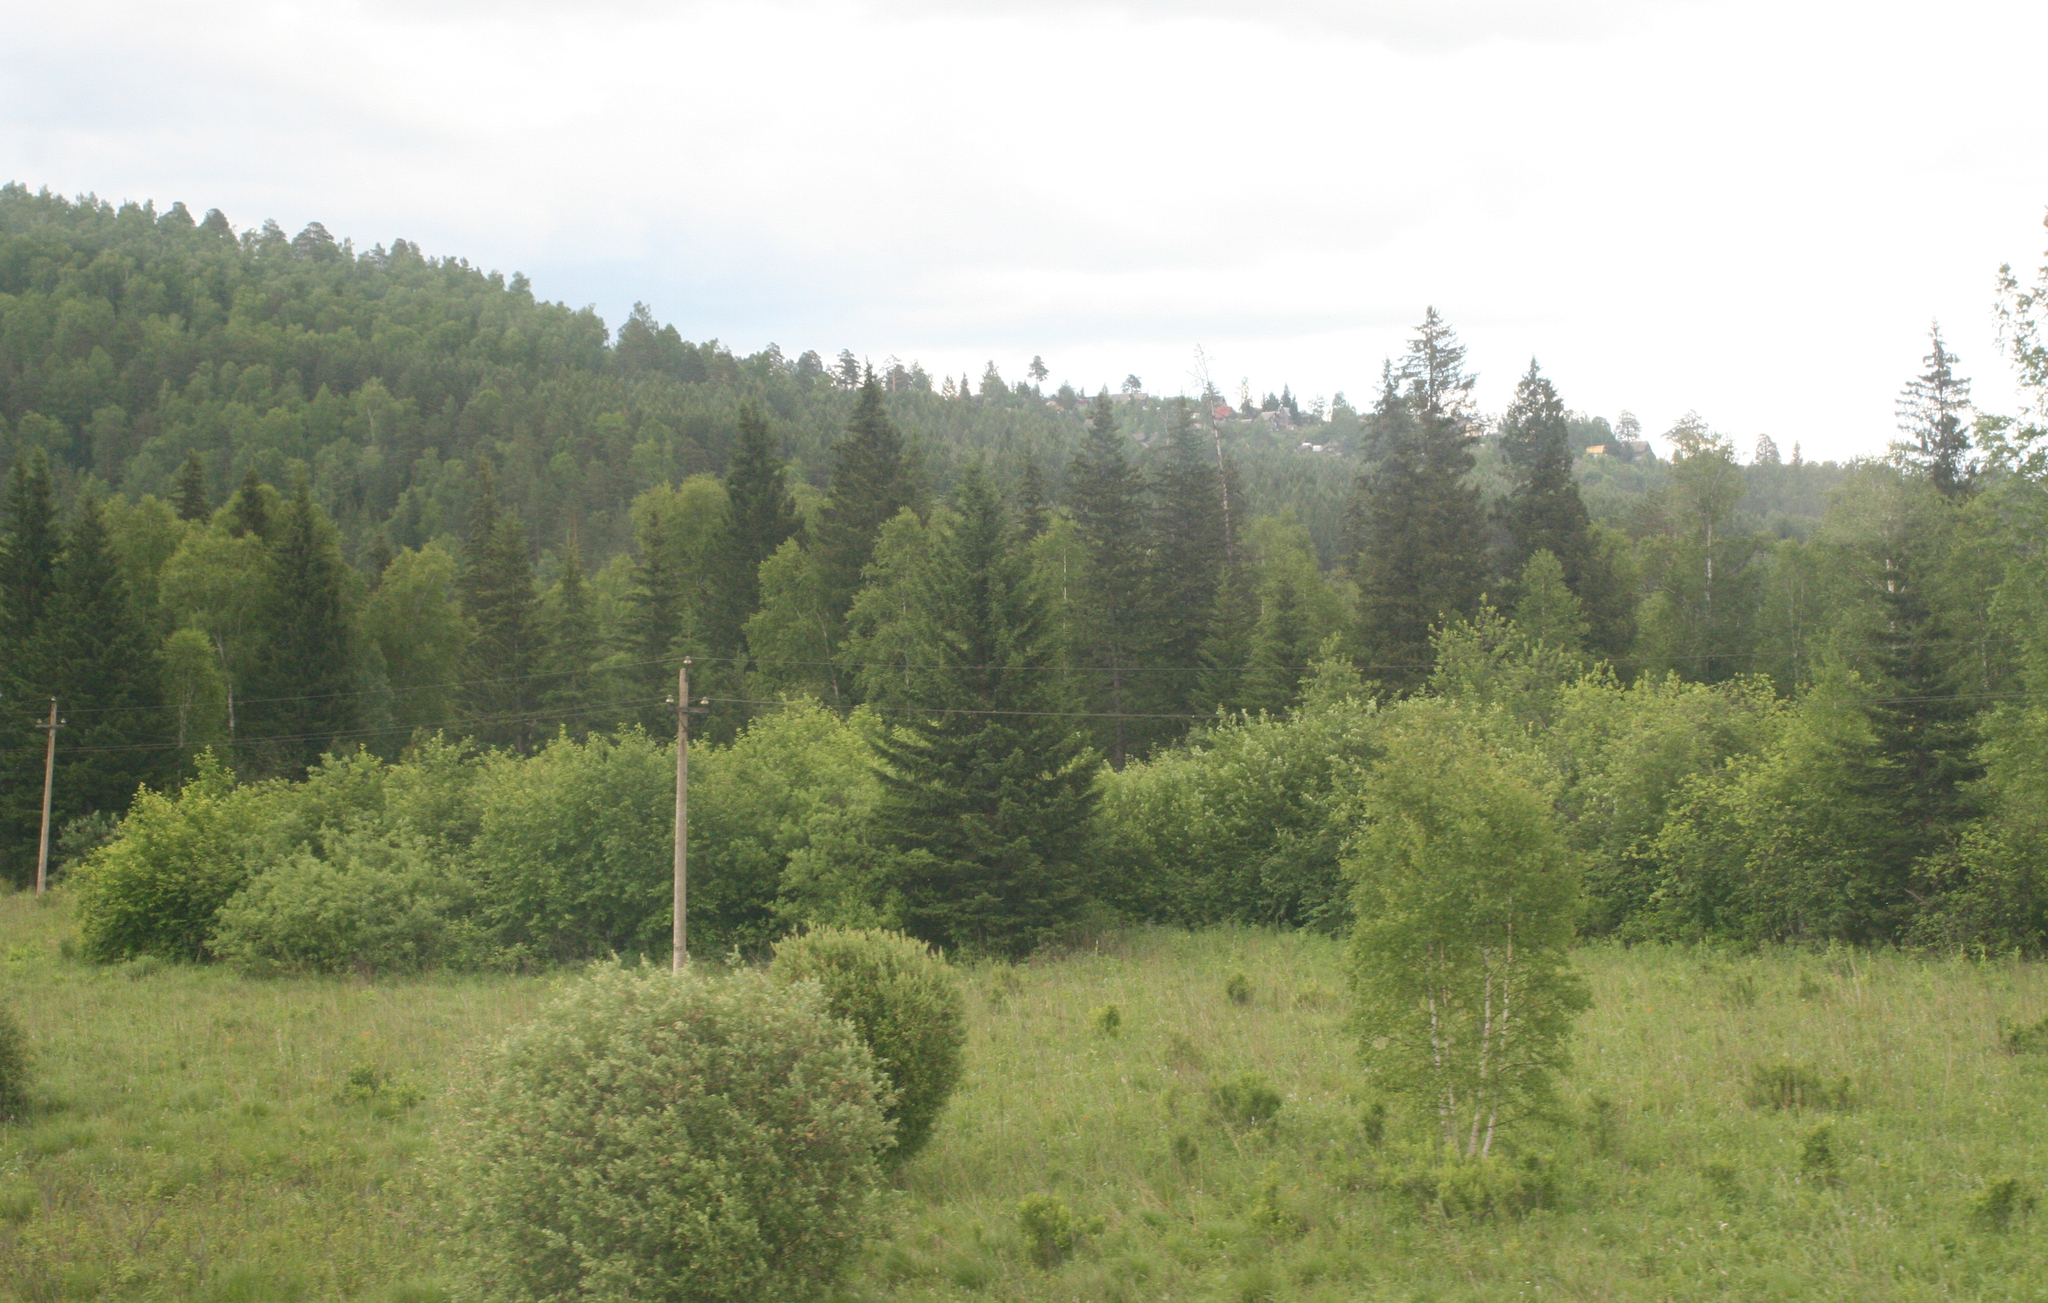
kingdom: Plantae
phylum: Tracheophyta
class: Pinopsida
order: Pinales
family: Pinaceae
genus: Picea
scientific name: Picea obovata
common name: Siberian spruce
